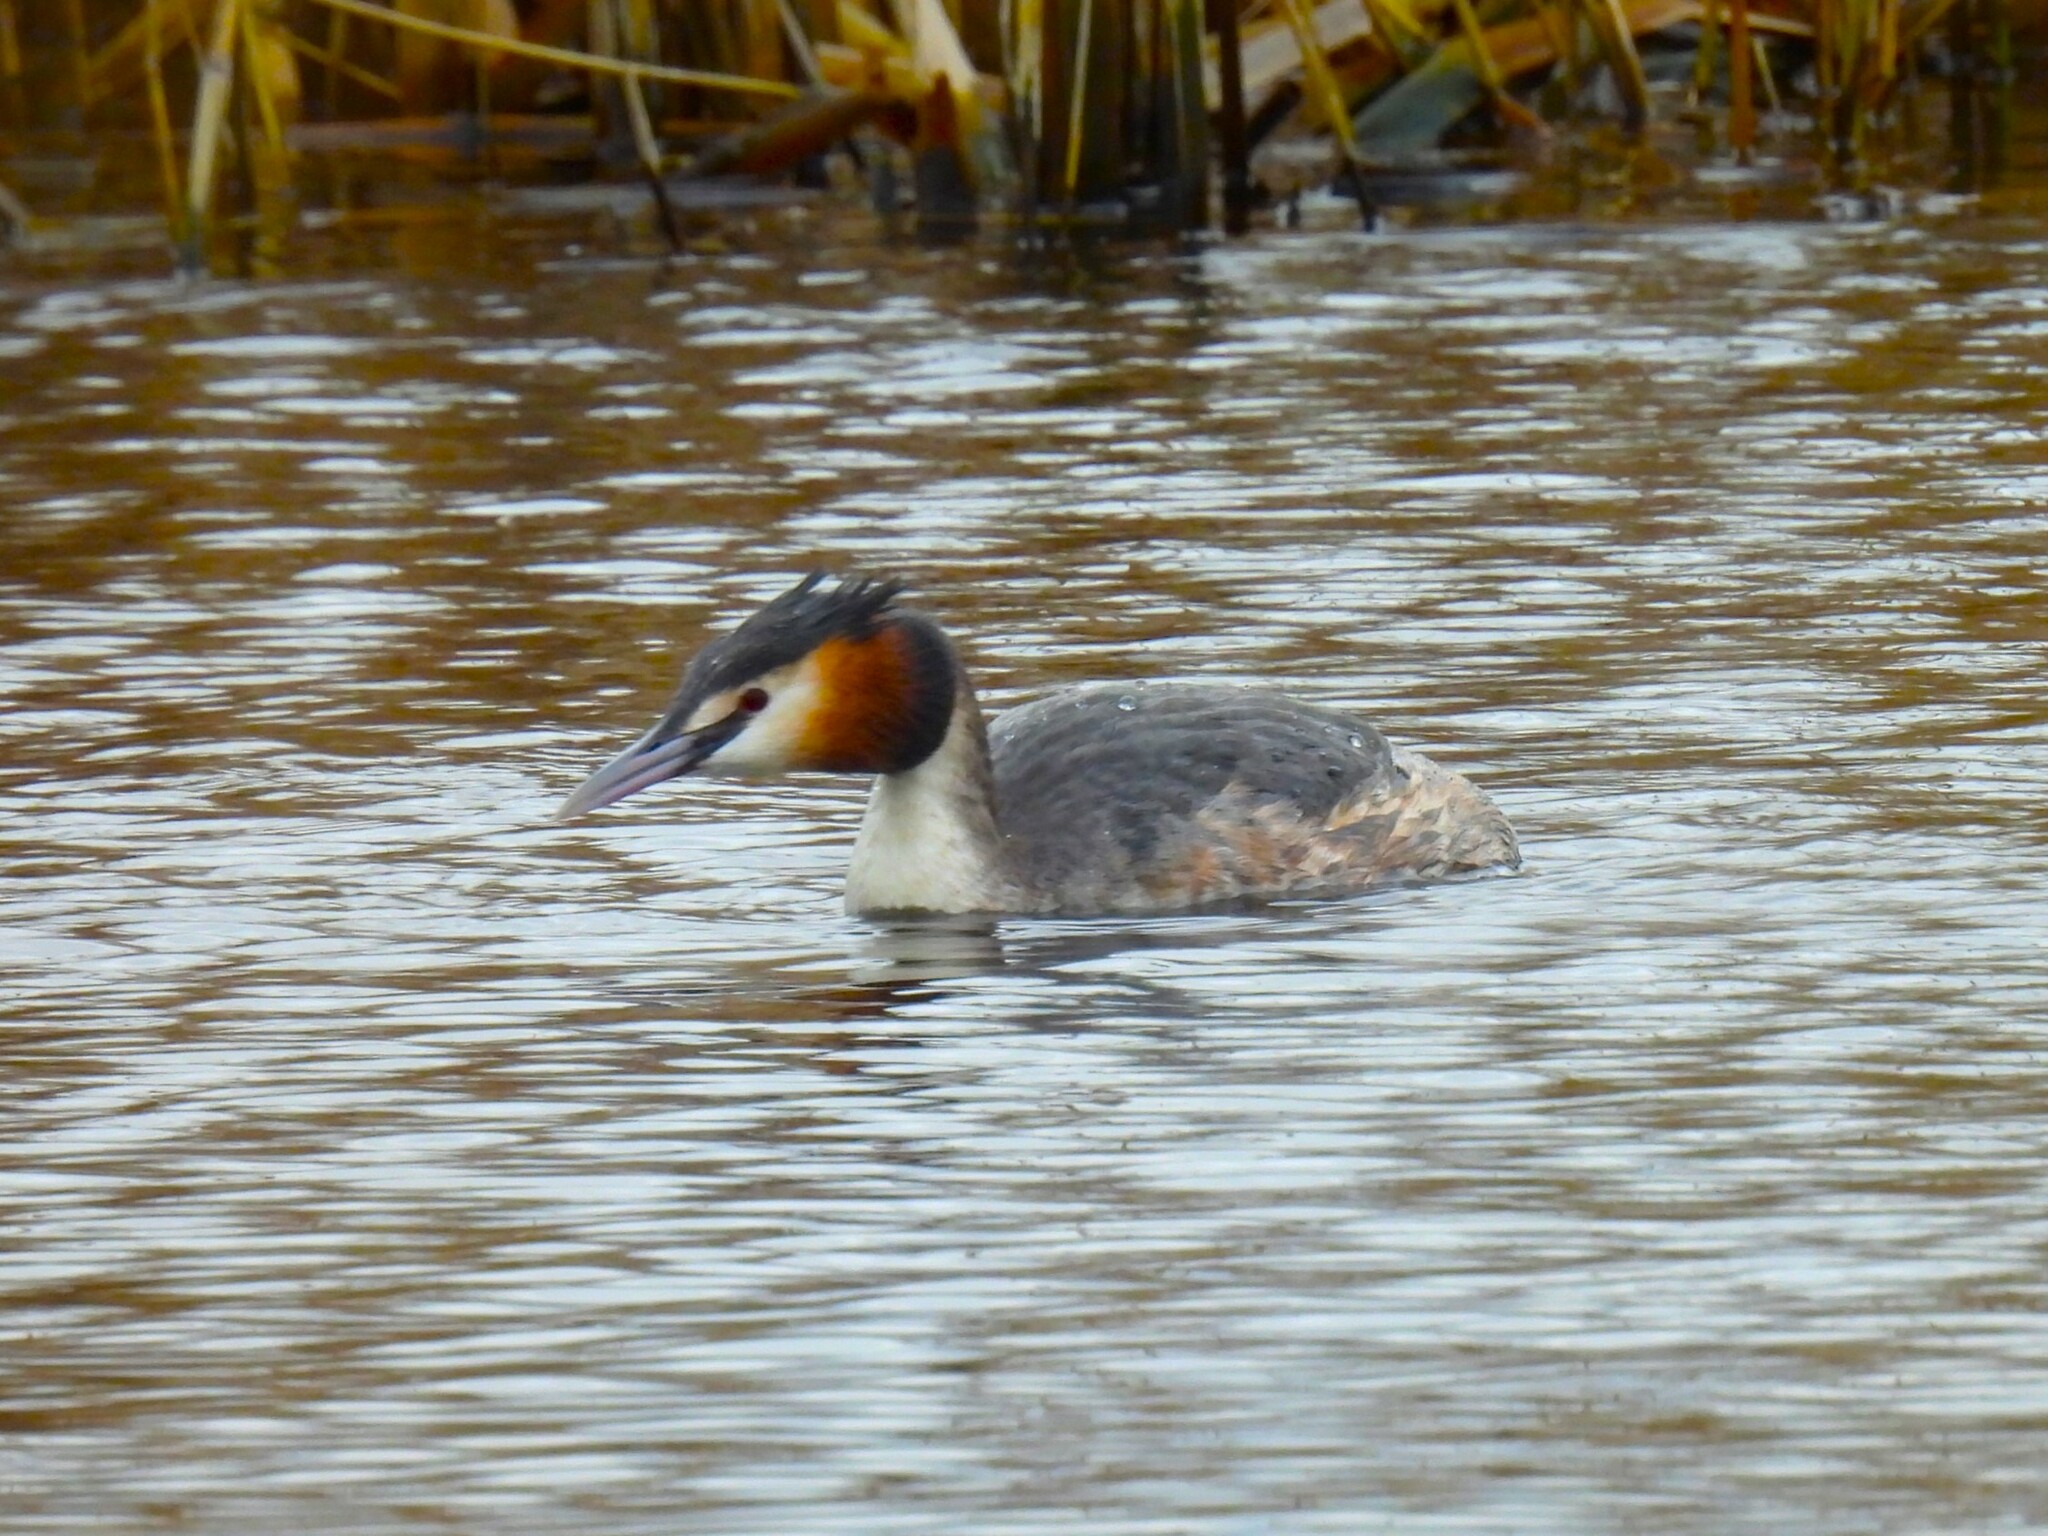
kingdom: Animalia
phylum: Chordata
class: Aves
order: Podicipediformes
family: Podicipedidae
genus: Podiceps
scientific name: Podiceps cristatus
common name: Great crested grebe
